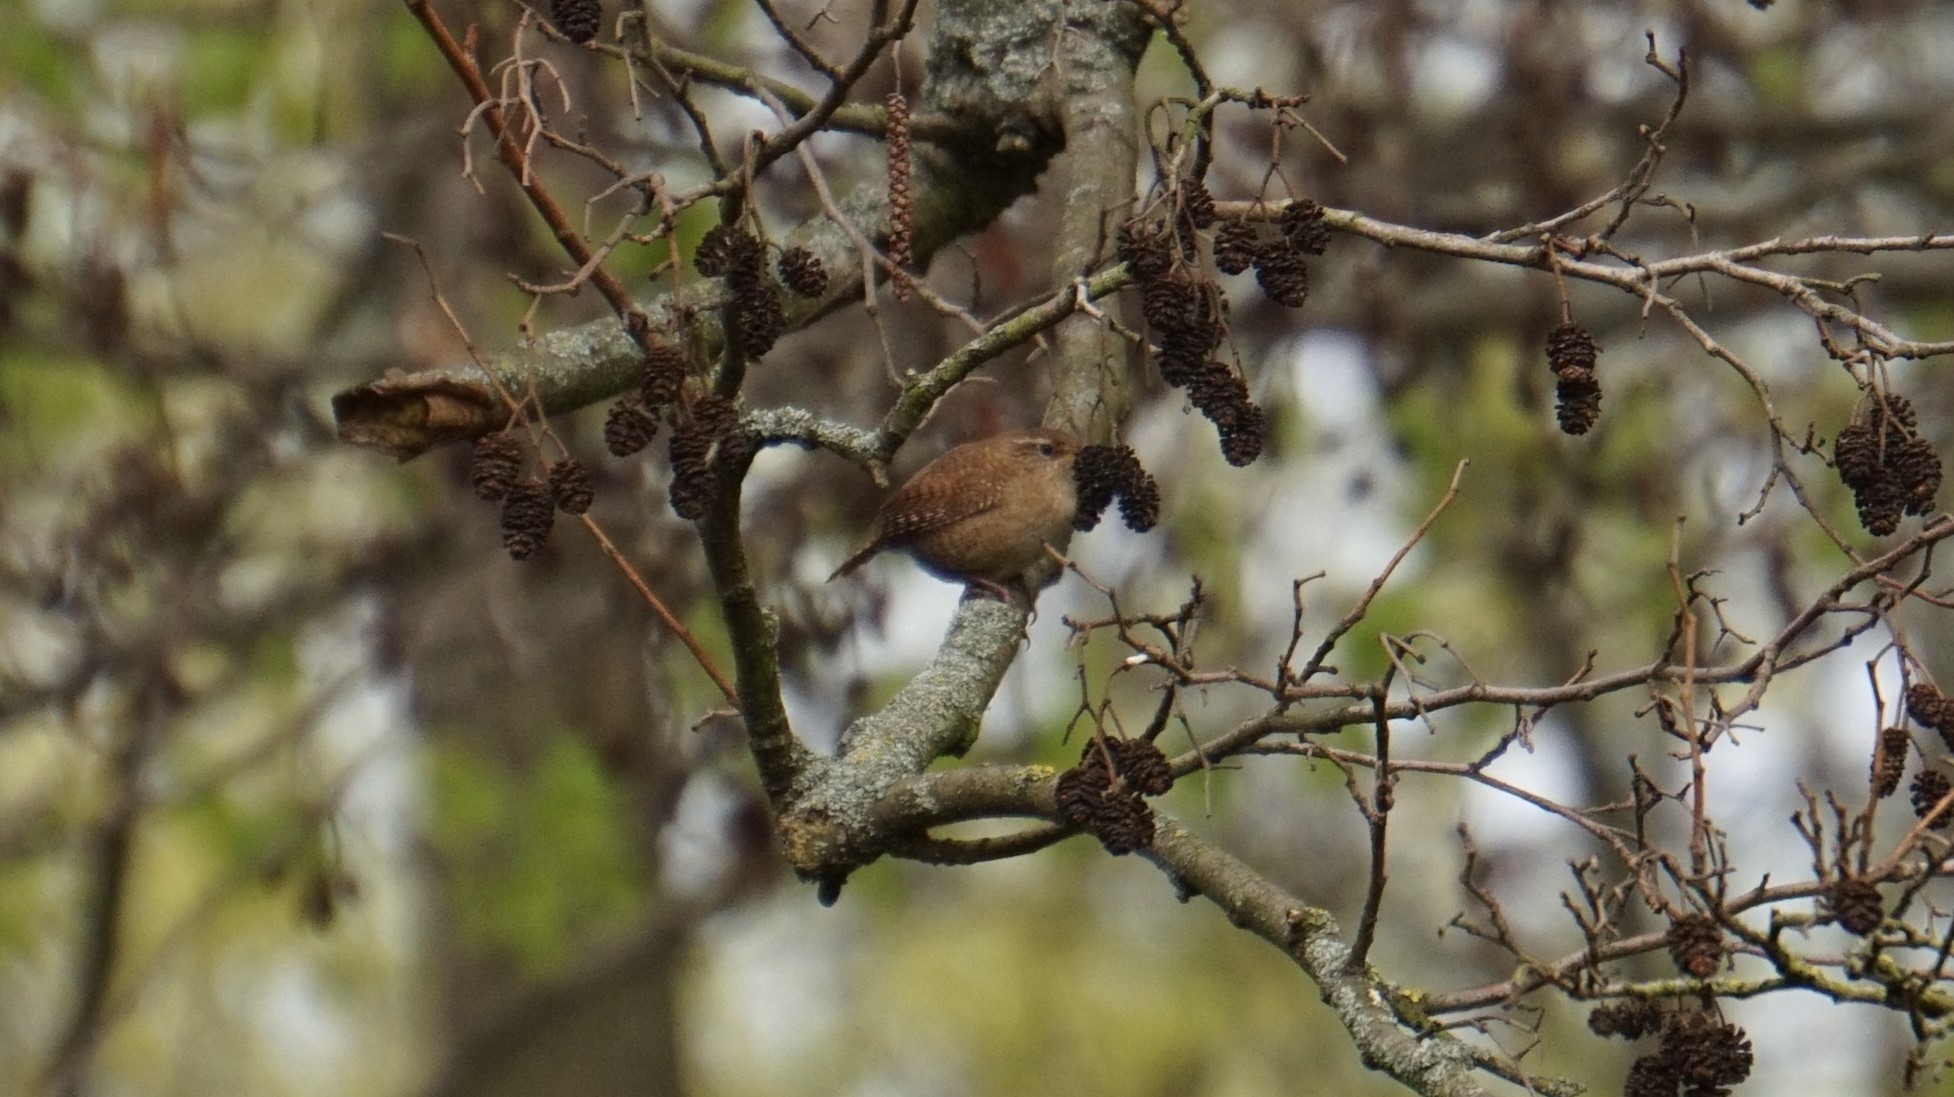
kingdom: Animalia
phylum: Chordata
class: Aves
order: Passeriformes
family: Troglodytidae
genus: Troglodytes
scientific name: Troglodytes troglodytes
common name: Eurasian wren
